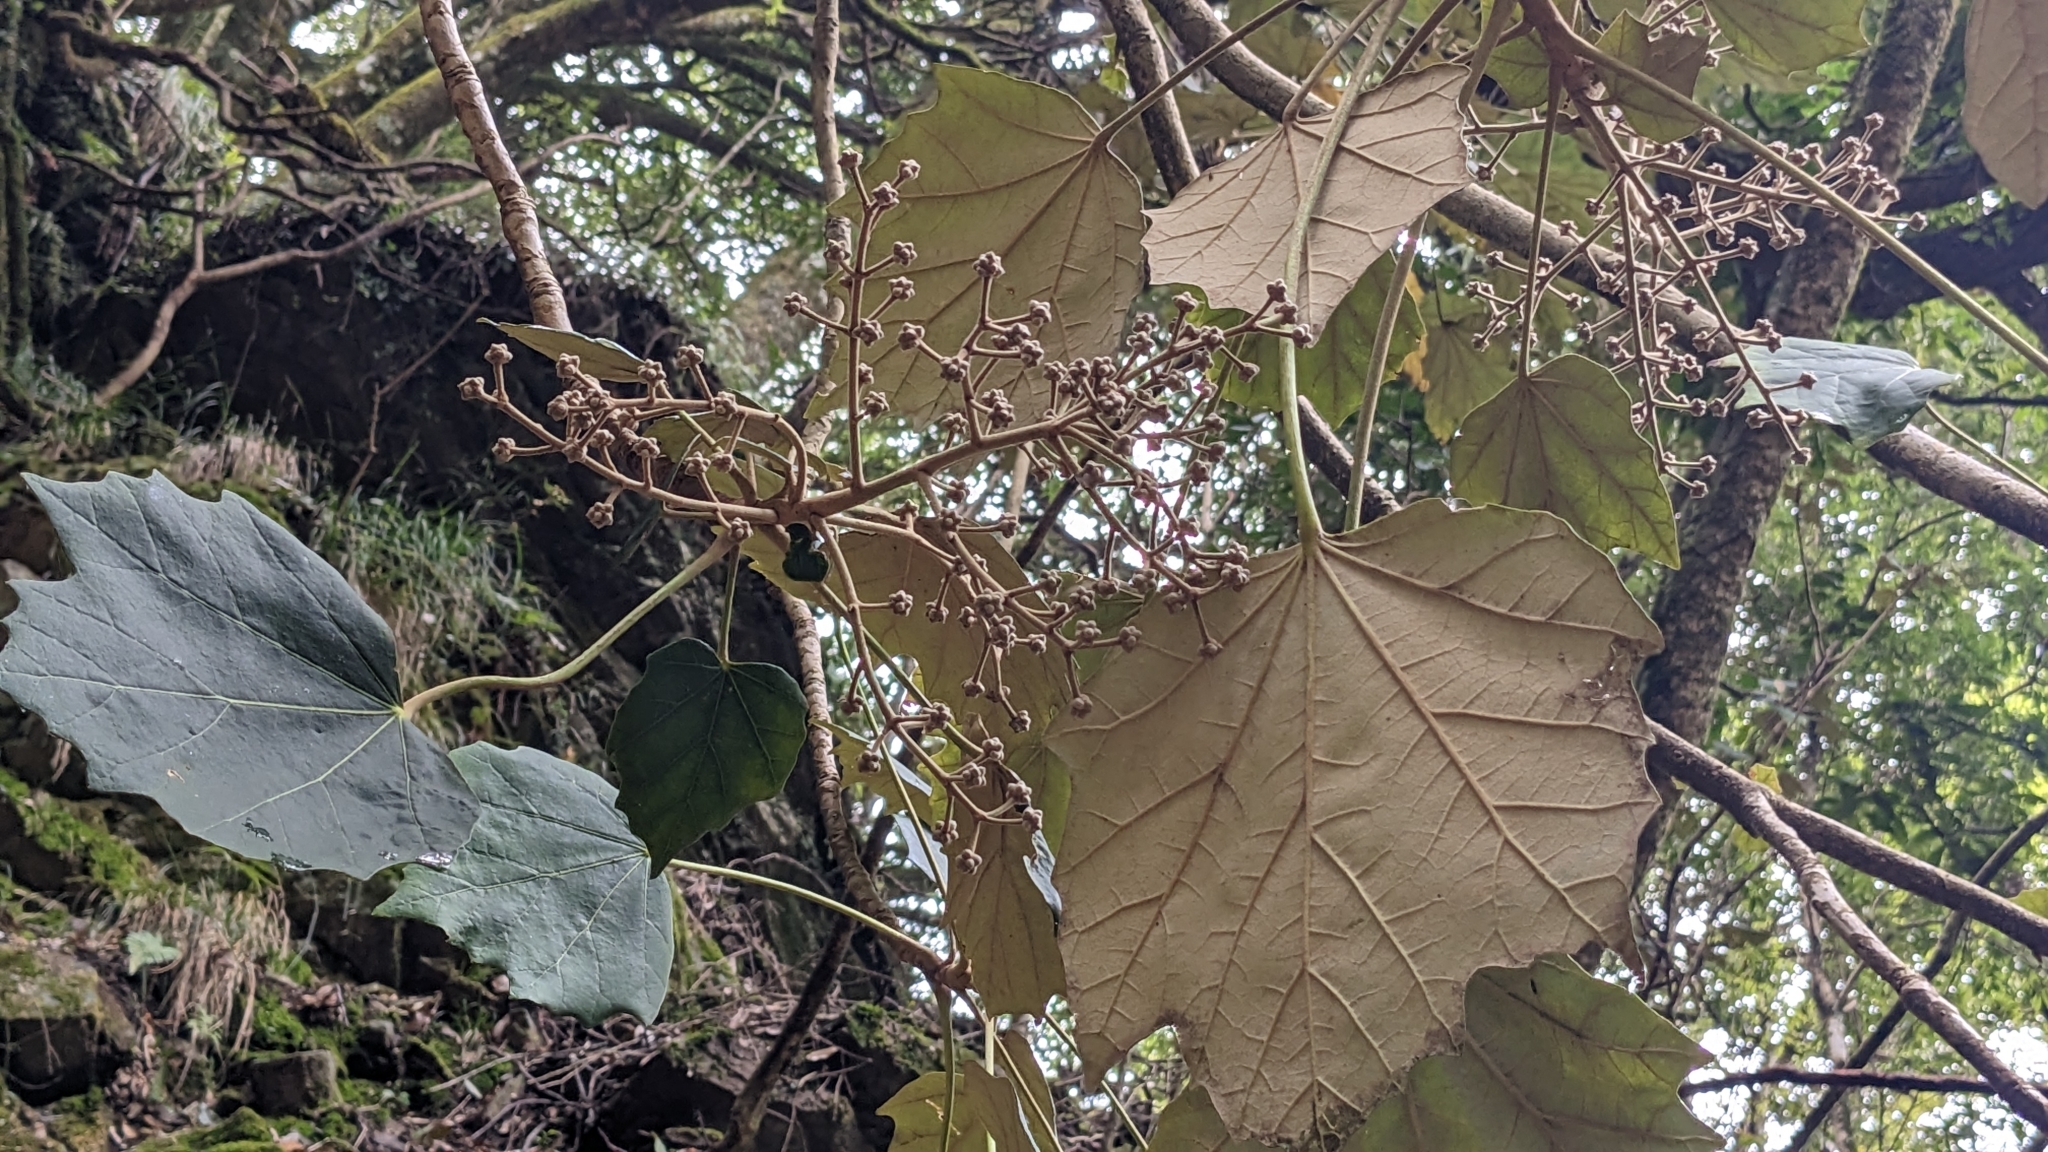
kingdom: Plantae
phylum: Tracheophyta
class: Magnoliopsida
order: Apiales
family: Araliaceae
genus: Sinopanax
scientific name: Sinopanax formosanus
